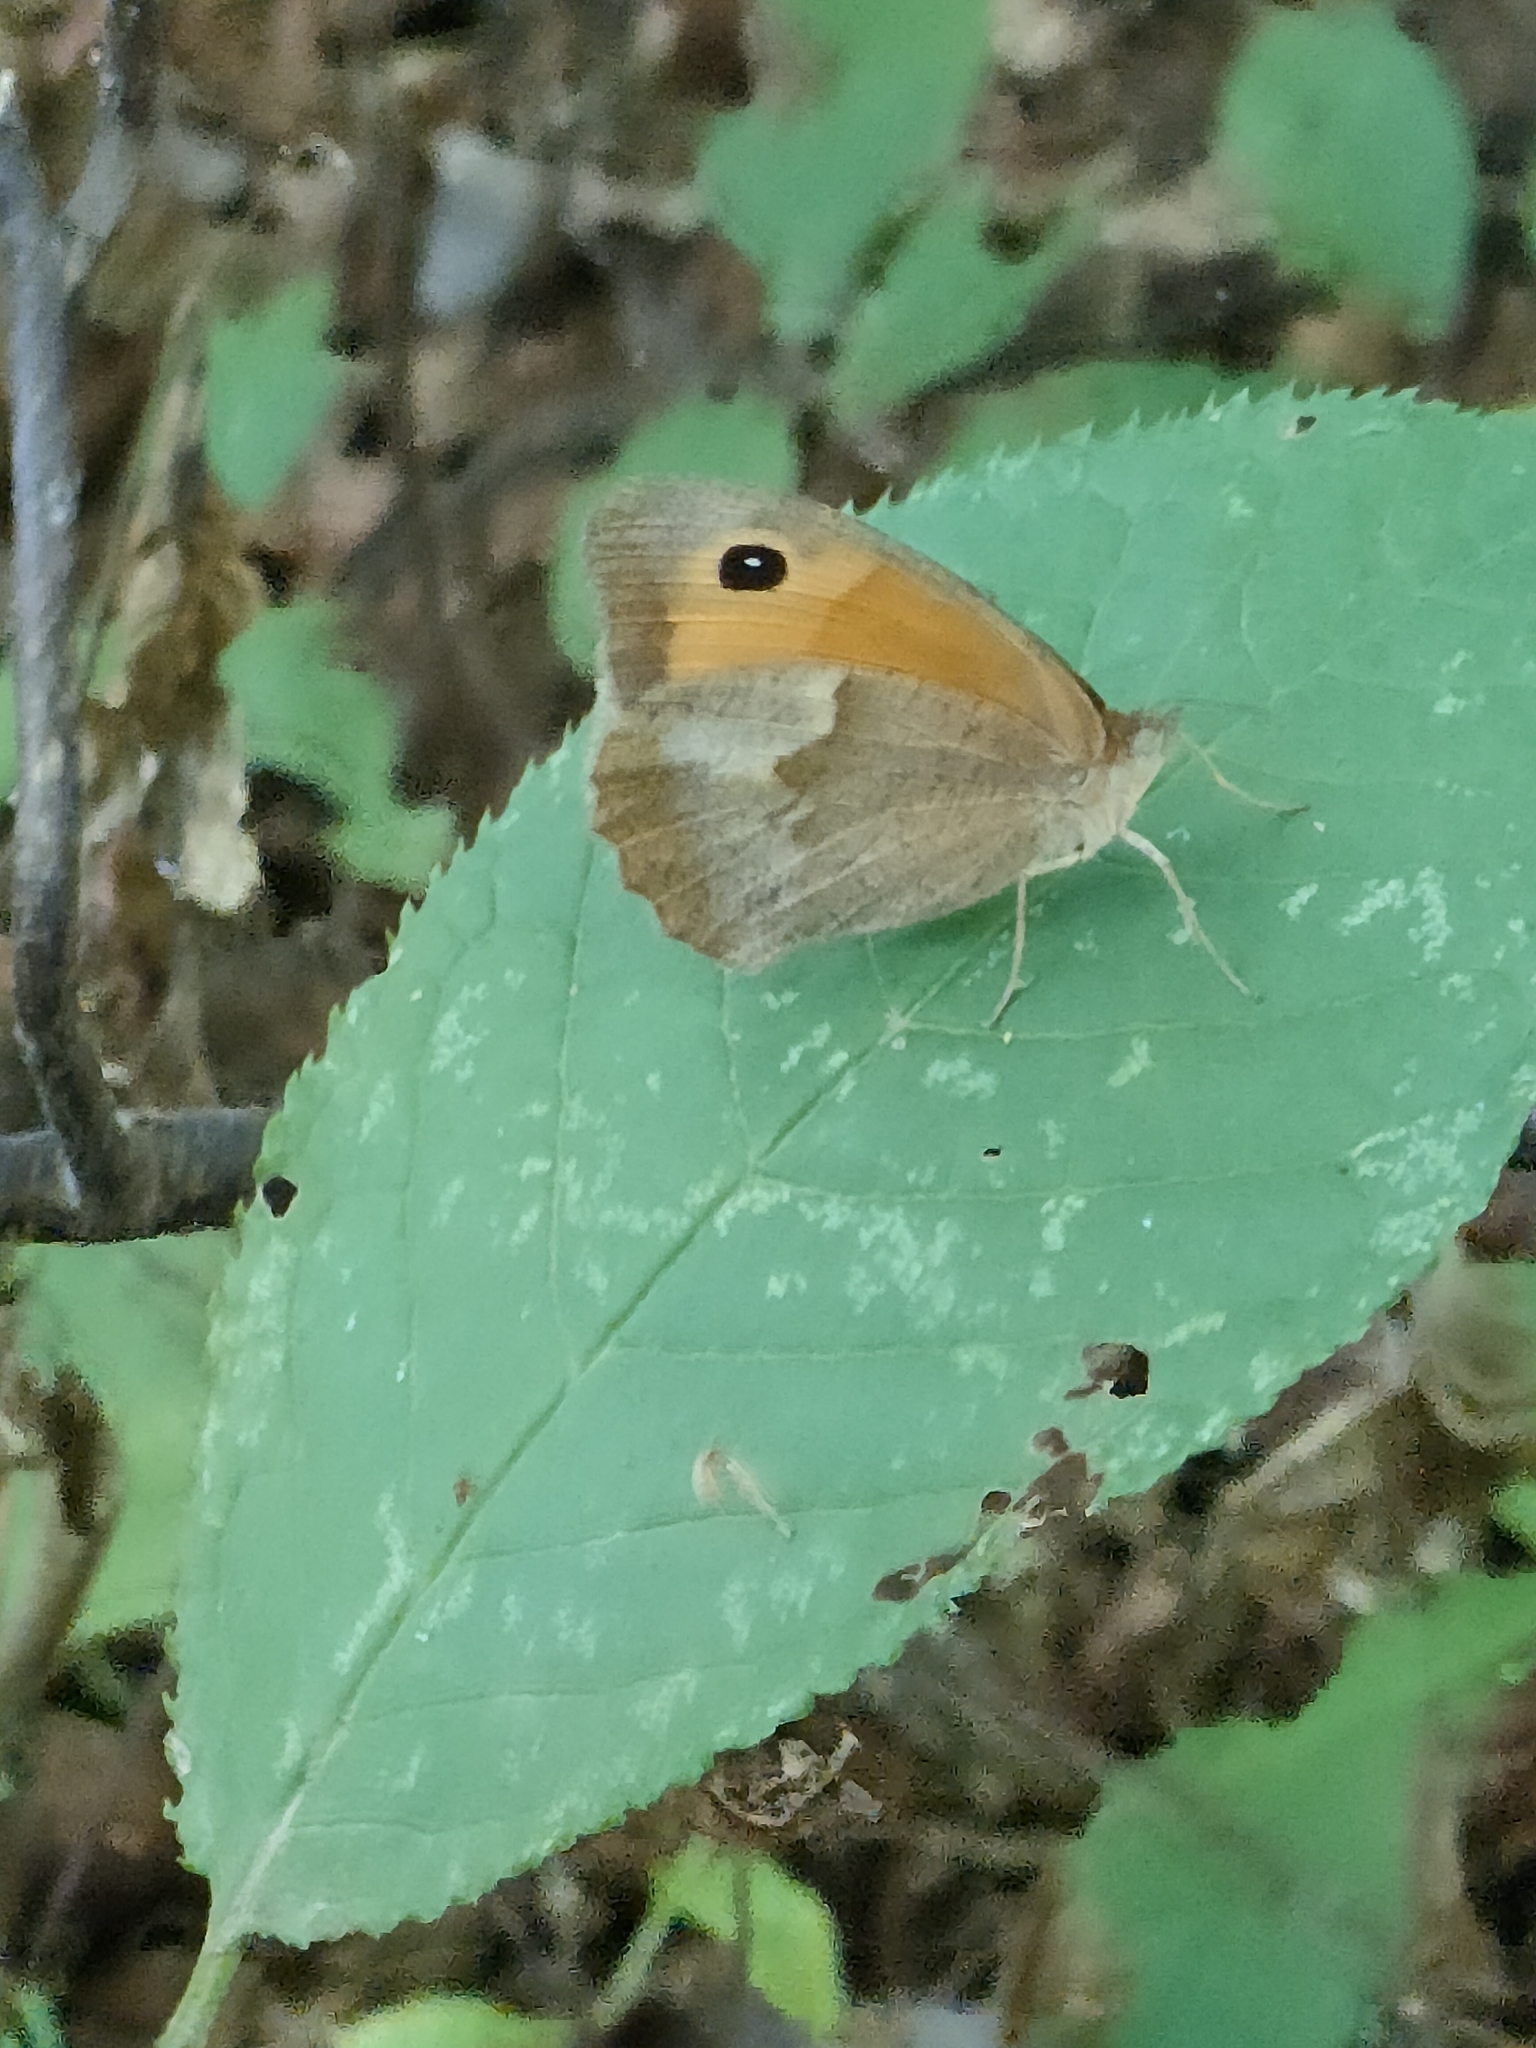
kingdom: Animalia
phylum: Arthropoda
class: Insecta
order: Lepidoptera
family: Nymphalidae
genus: Maniola
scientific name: Maniola jurtina
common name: Meadow brown
